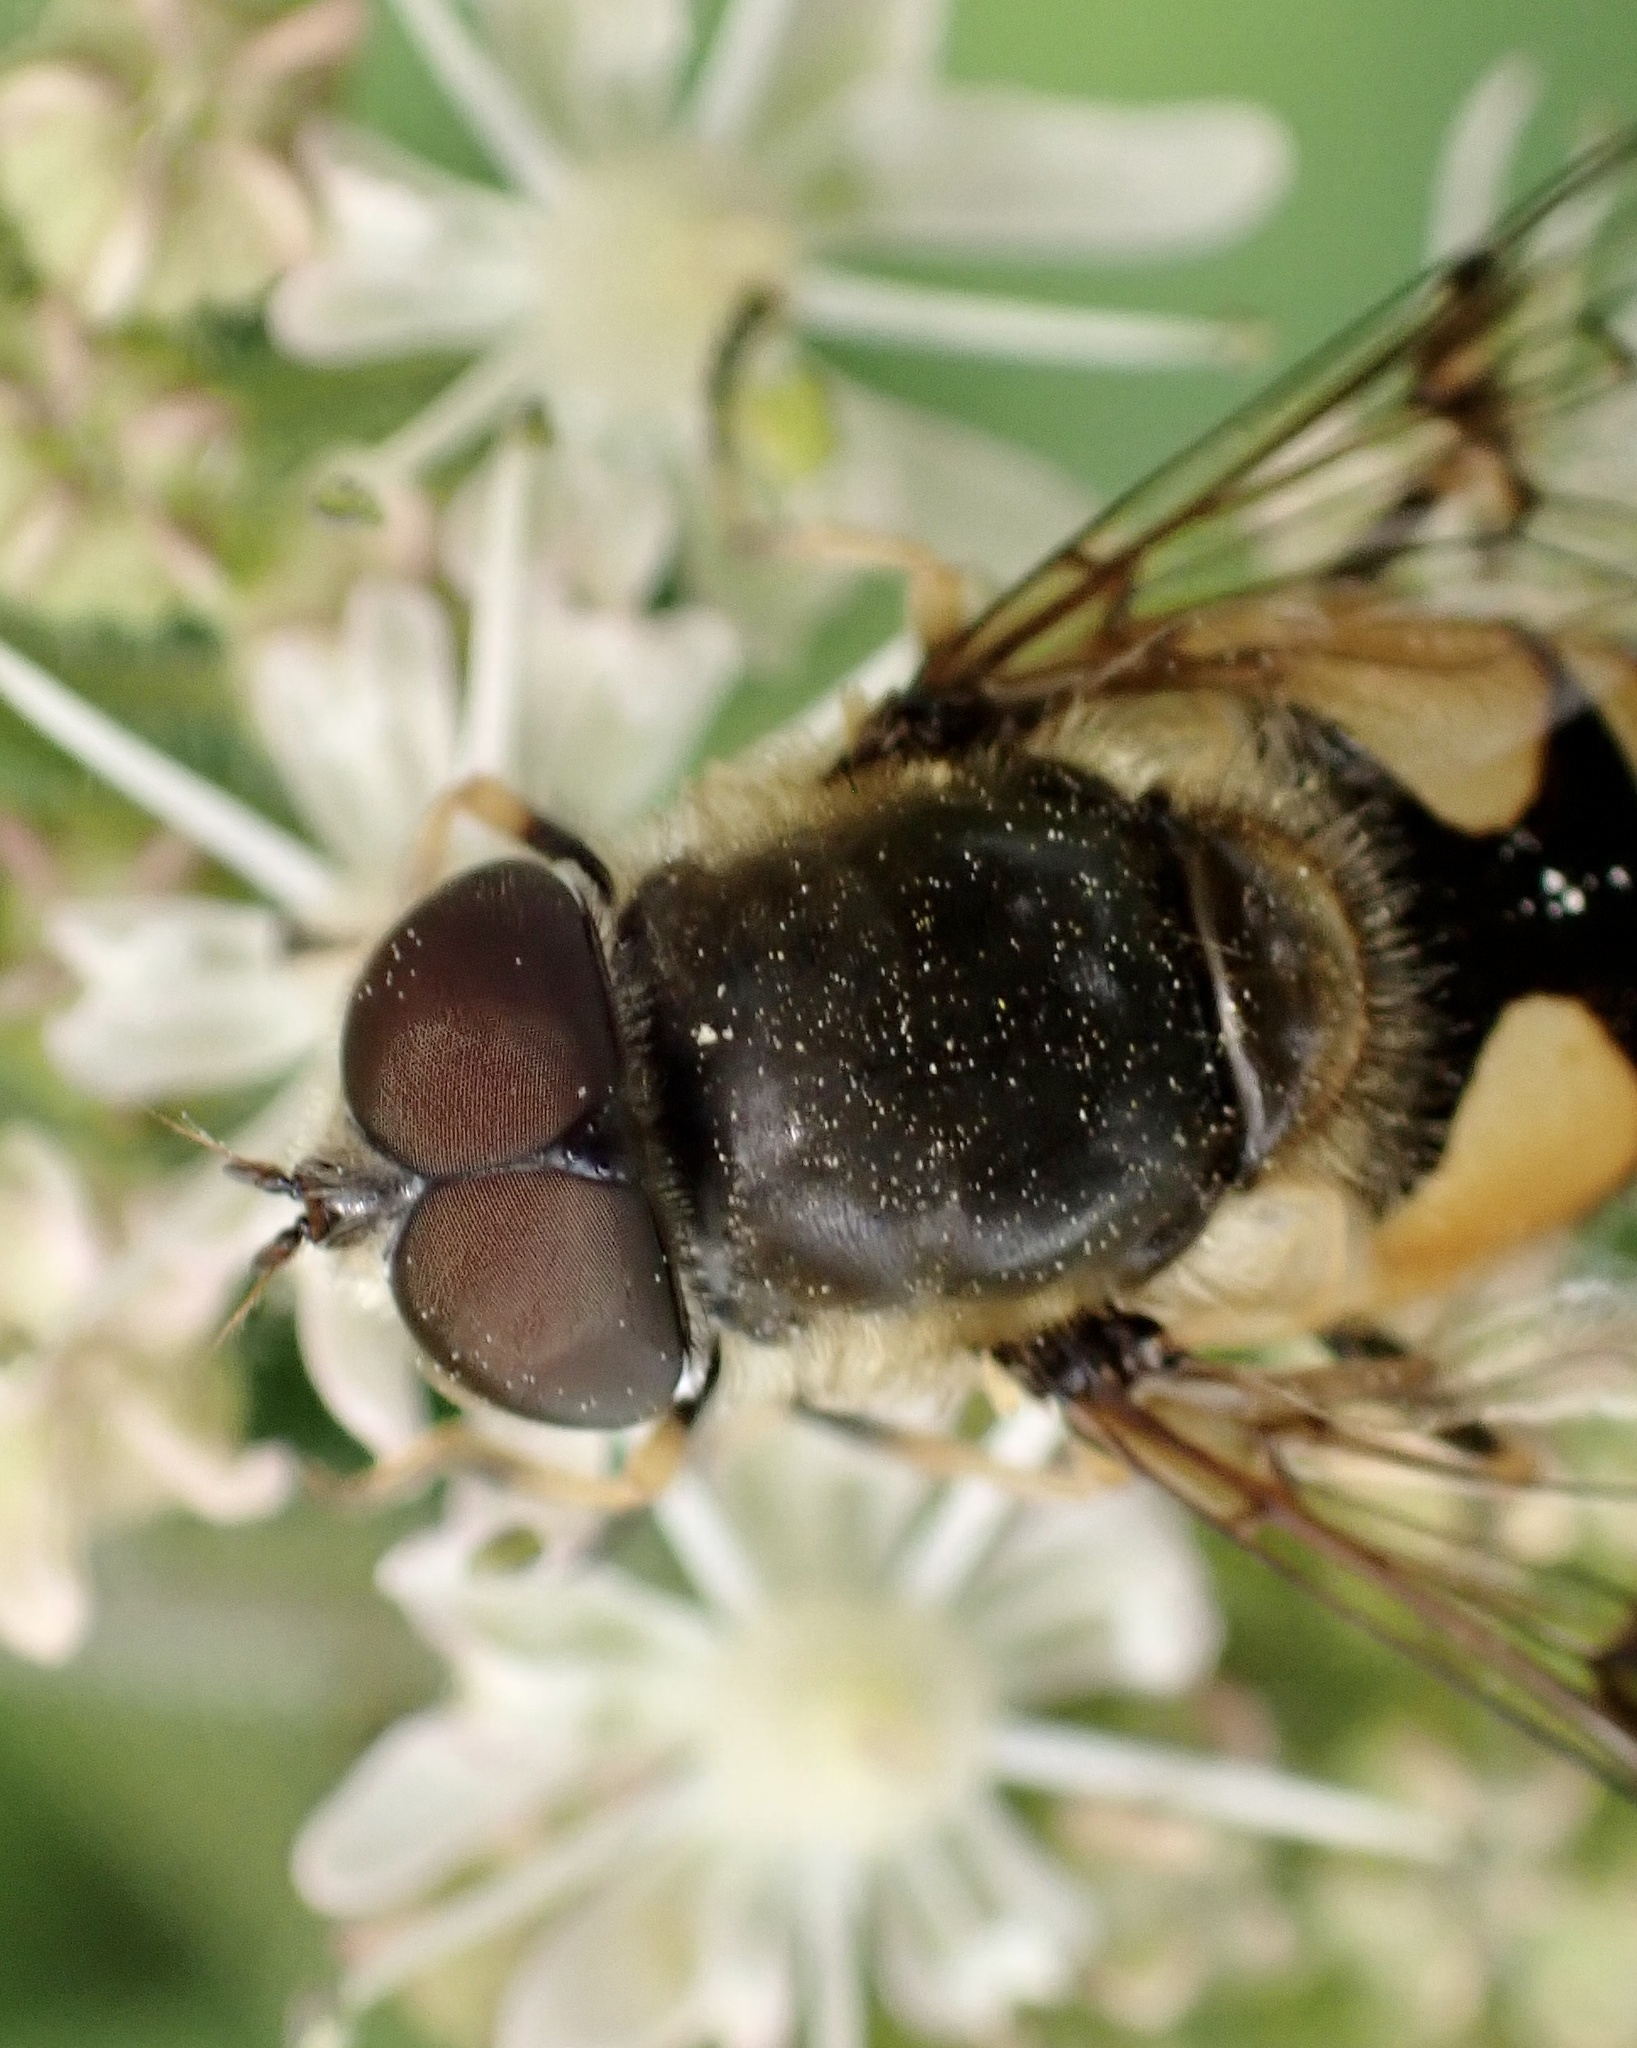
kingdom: Animalia
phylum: Arthropoda
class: Insecta
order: Diptera
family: Syrphidae
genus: Cheilosia
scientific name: Cheilosia morio
